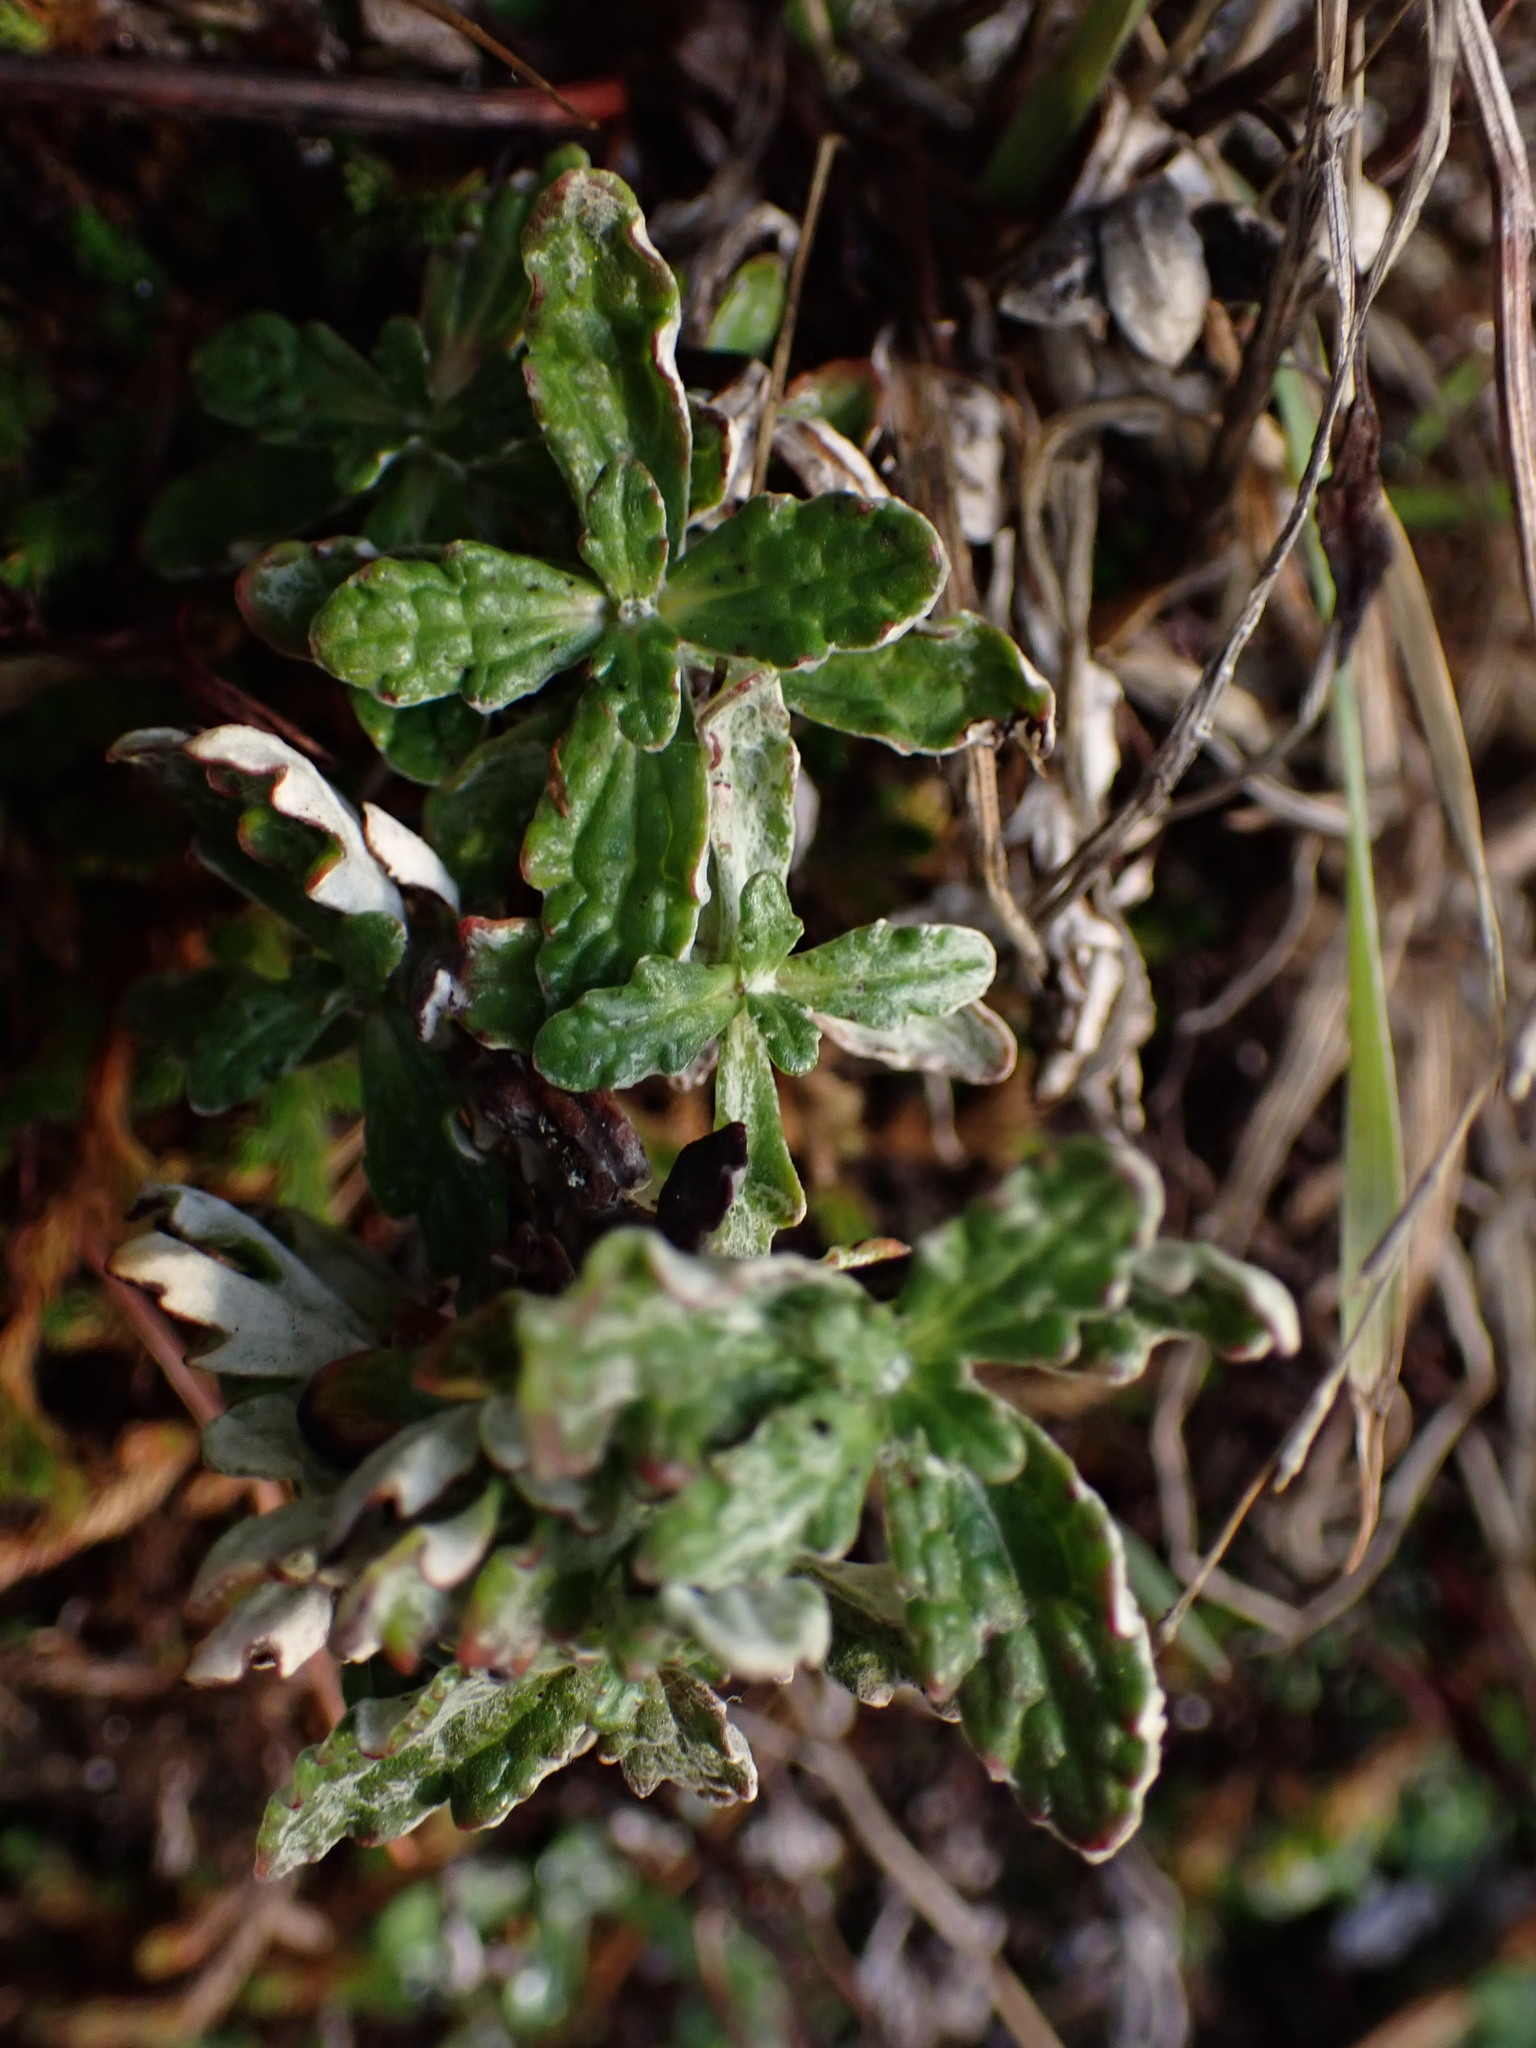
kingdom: Plantae
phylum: Tracheophyta
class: Magnoliopsida
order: Asterales
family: Asteraceae
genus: Eriophyllum
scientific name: Eriophyllum lanatum
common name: Common woolly-sunflower
